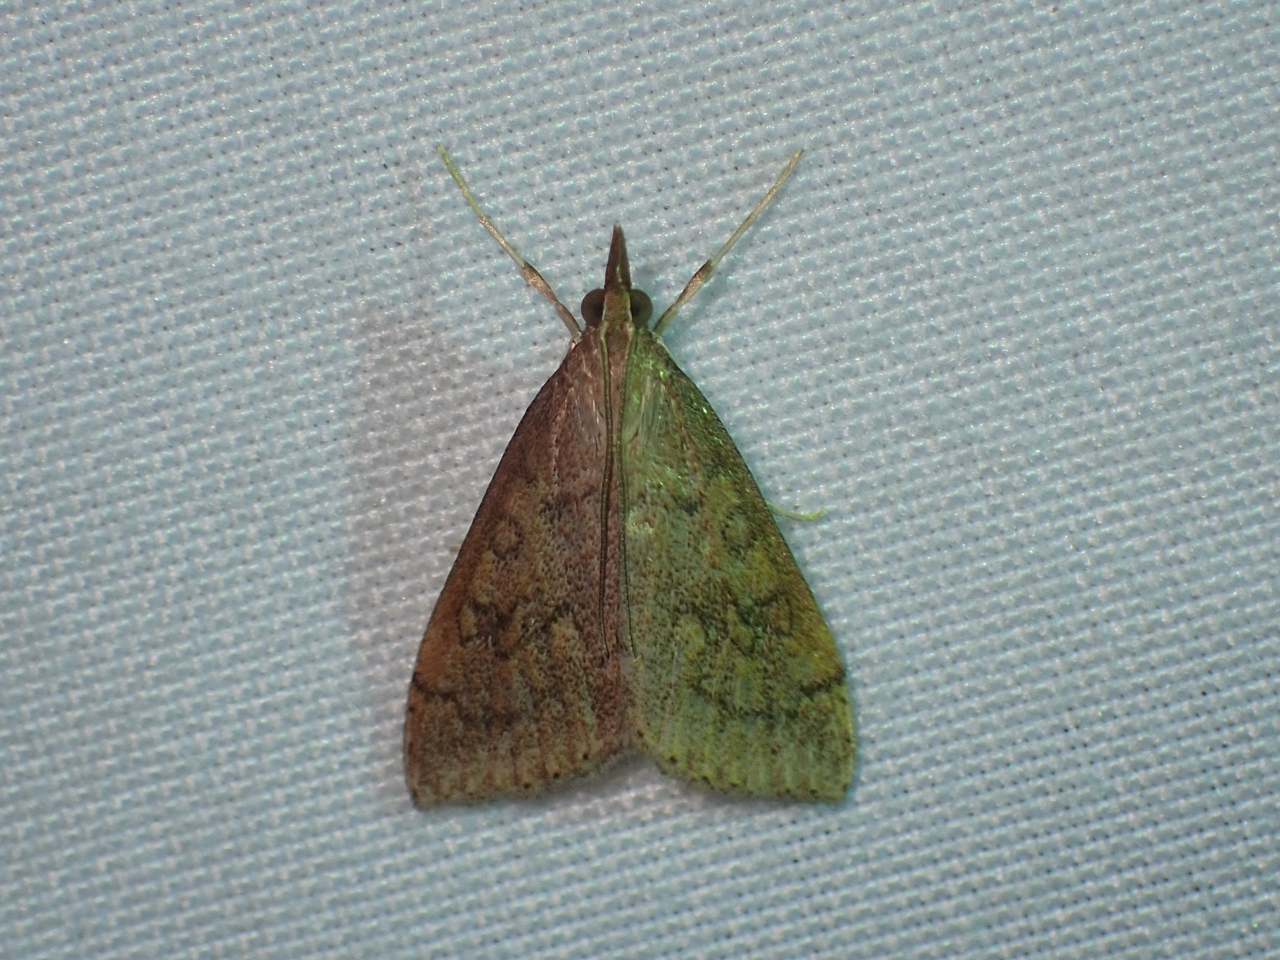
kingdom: Animalia
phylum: Arthropoda
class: Insecta
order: Lepidoptera
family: Crambidae
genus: Udea
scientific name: Udea rubigalis
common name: Celery leaftier moth
